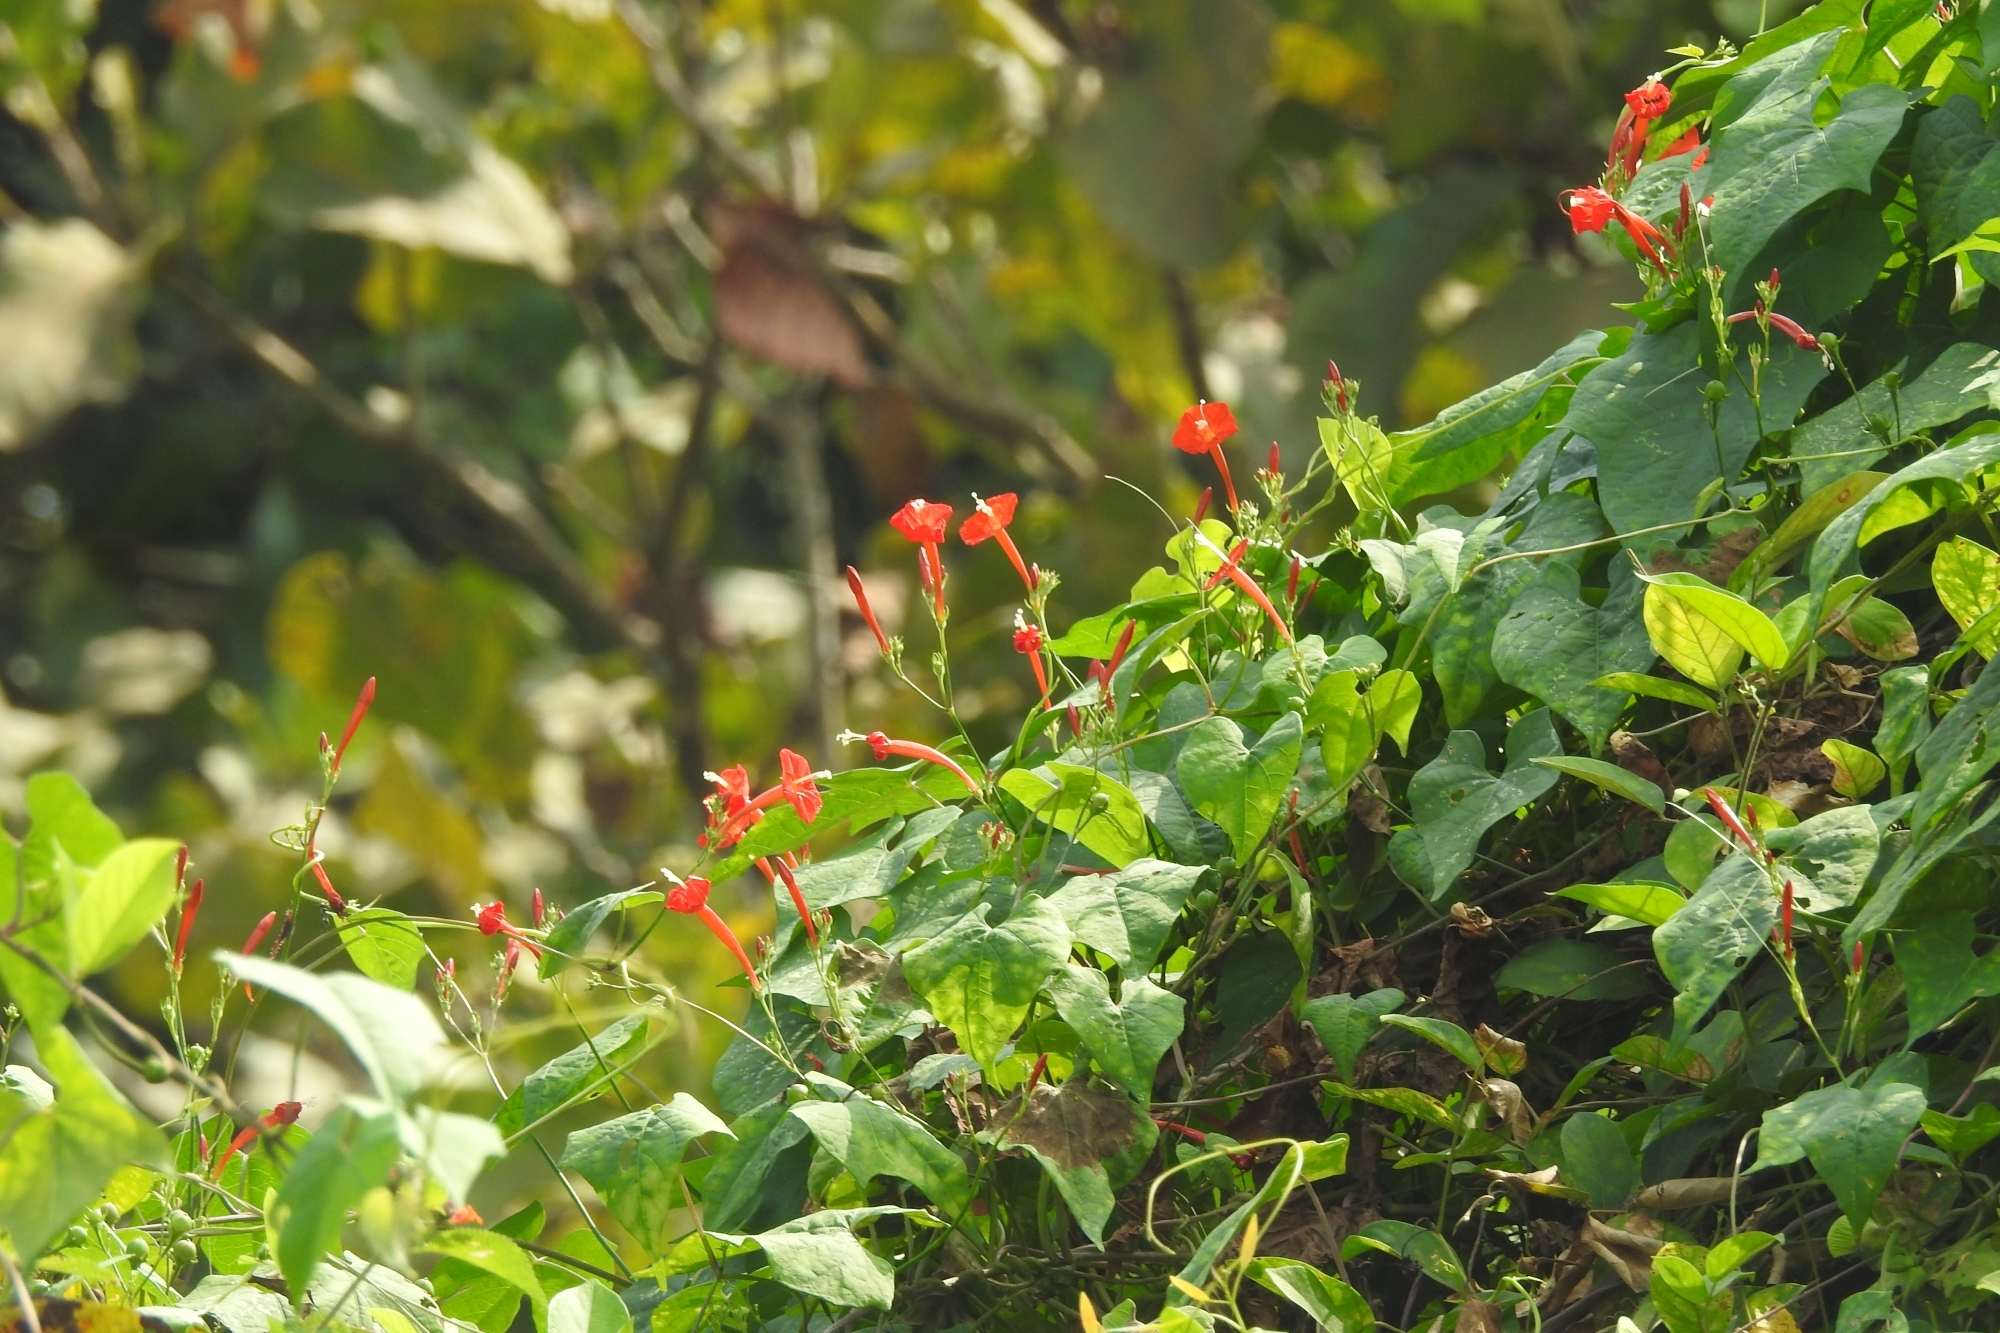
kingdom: Plantae
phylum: Tracheophyta
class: Magnoliopsida
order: Solanales
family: Convolvulaceae
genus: Ipomoea
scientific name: Ipomoea hederifolia
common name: Ivy-leaf morning-glory
